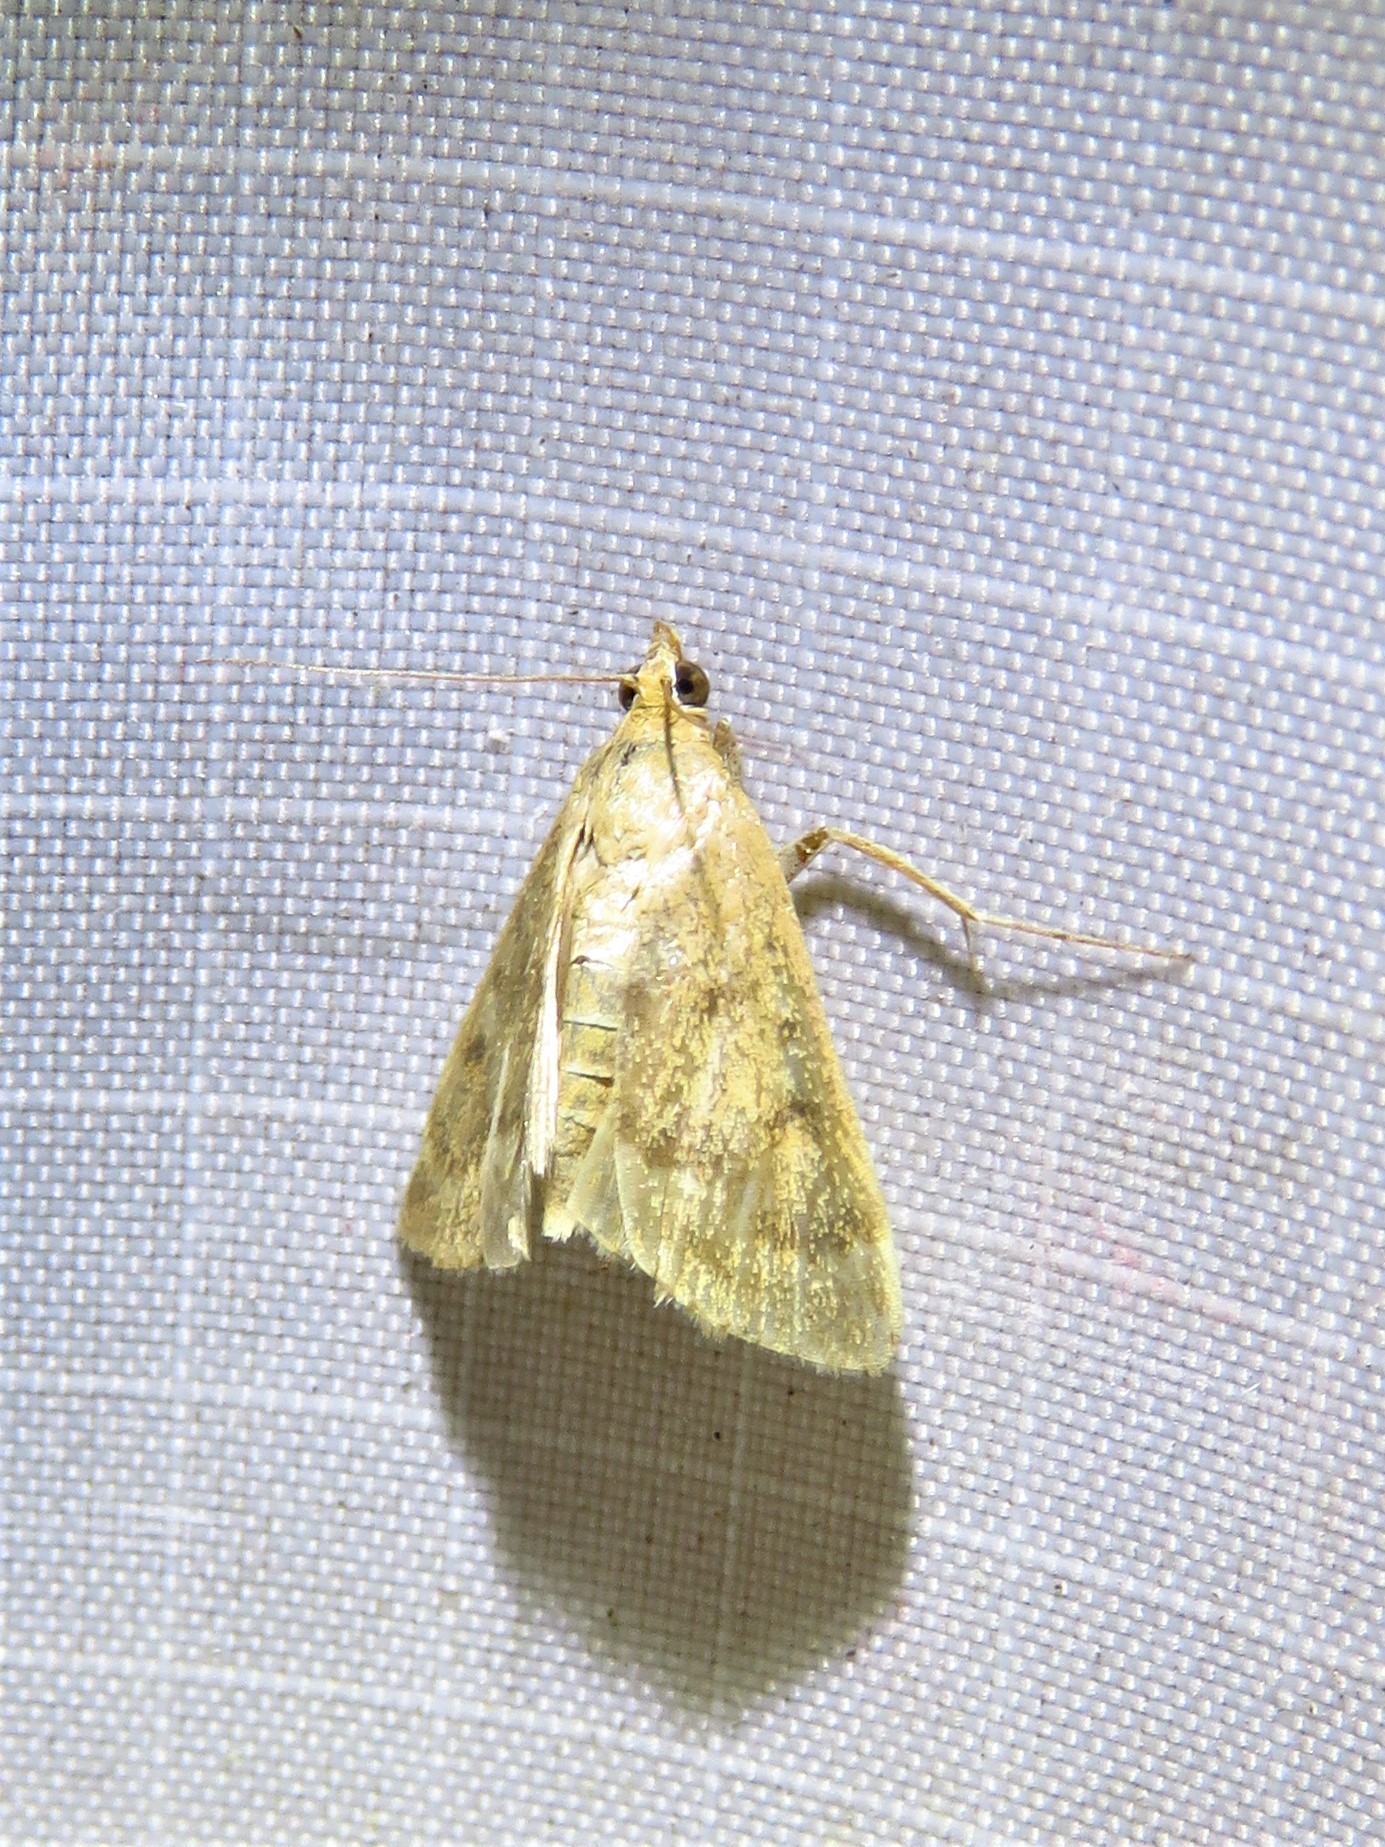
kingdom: Animalia
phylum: Arthropoda
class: Insecta
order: Lepidoptera
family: Crambidae
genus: Achyra
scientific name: Achyra rantalis
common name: Garden webworm
